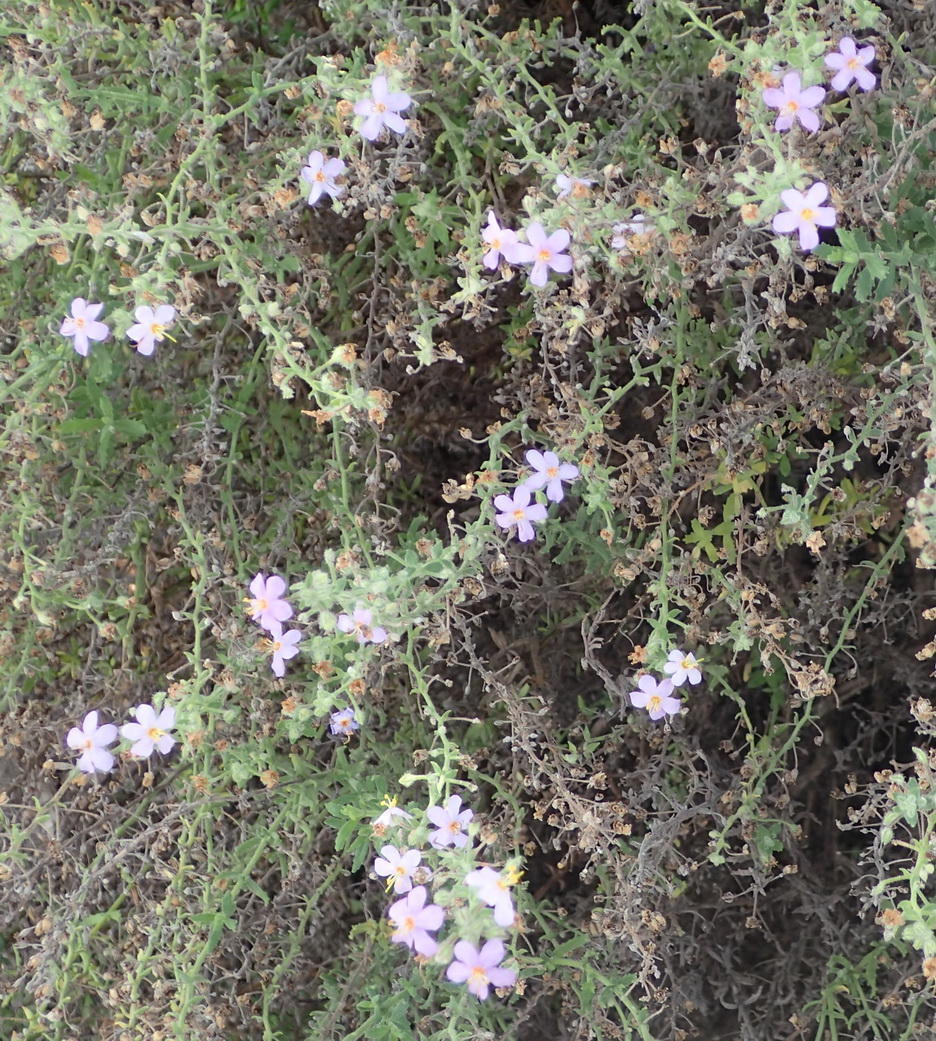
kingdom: Plantae
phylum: Tracheophyta
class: Magnoliopsida
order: Lamiales
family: Scrophulariaceae
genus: Chaenostoma
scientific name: Chaenostoma caeruleum
